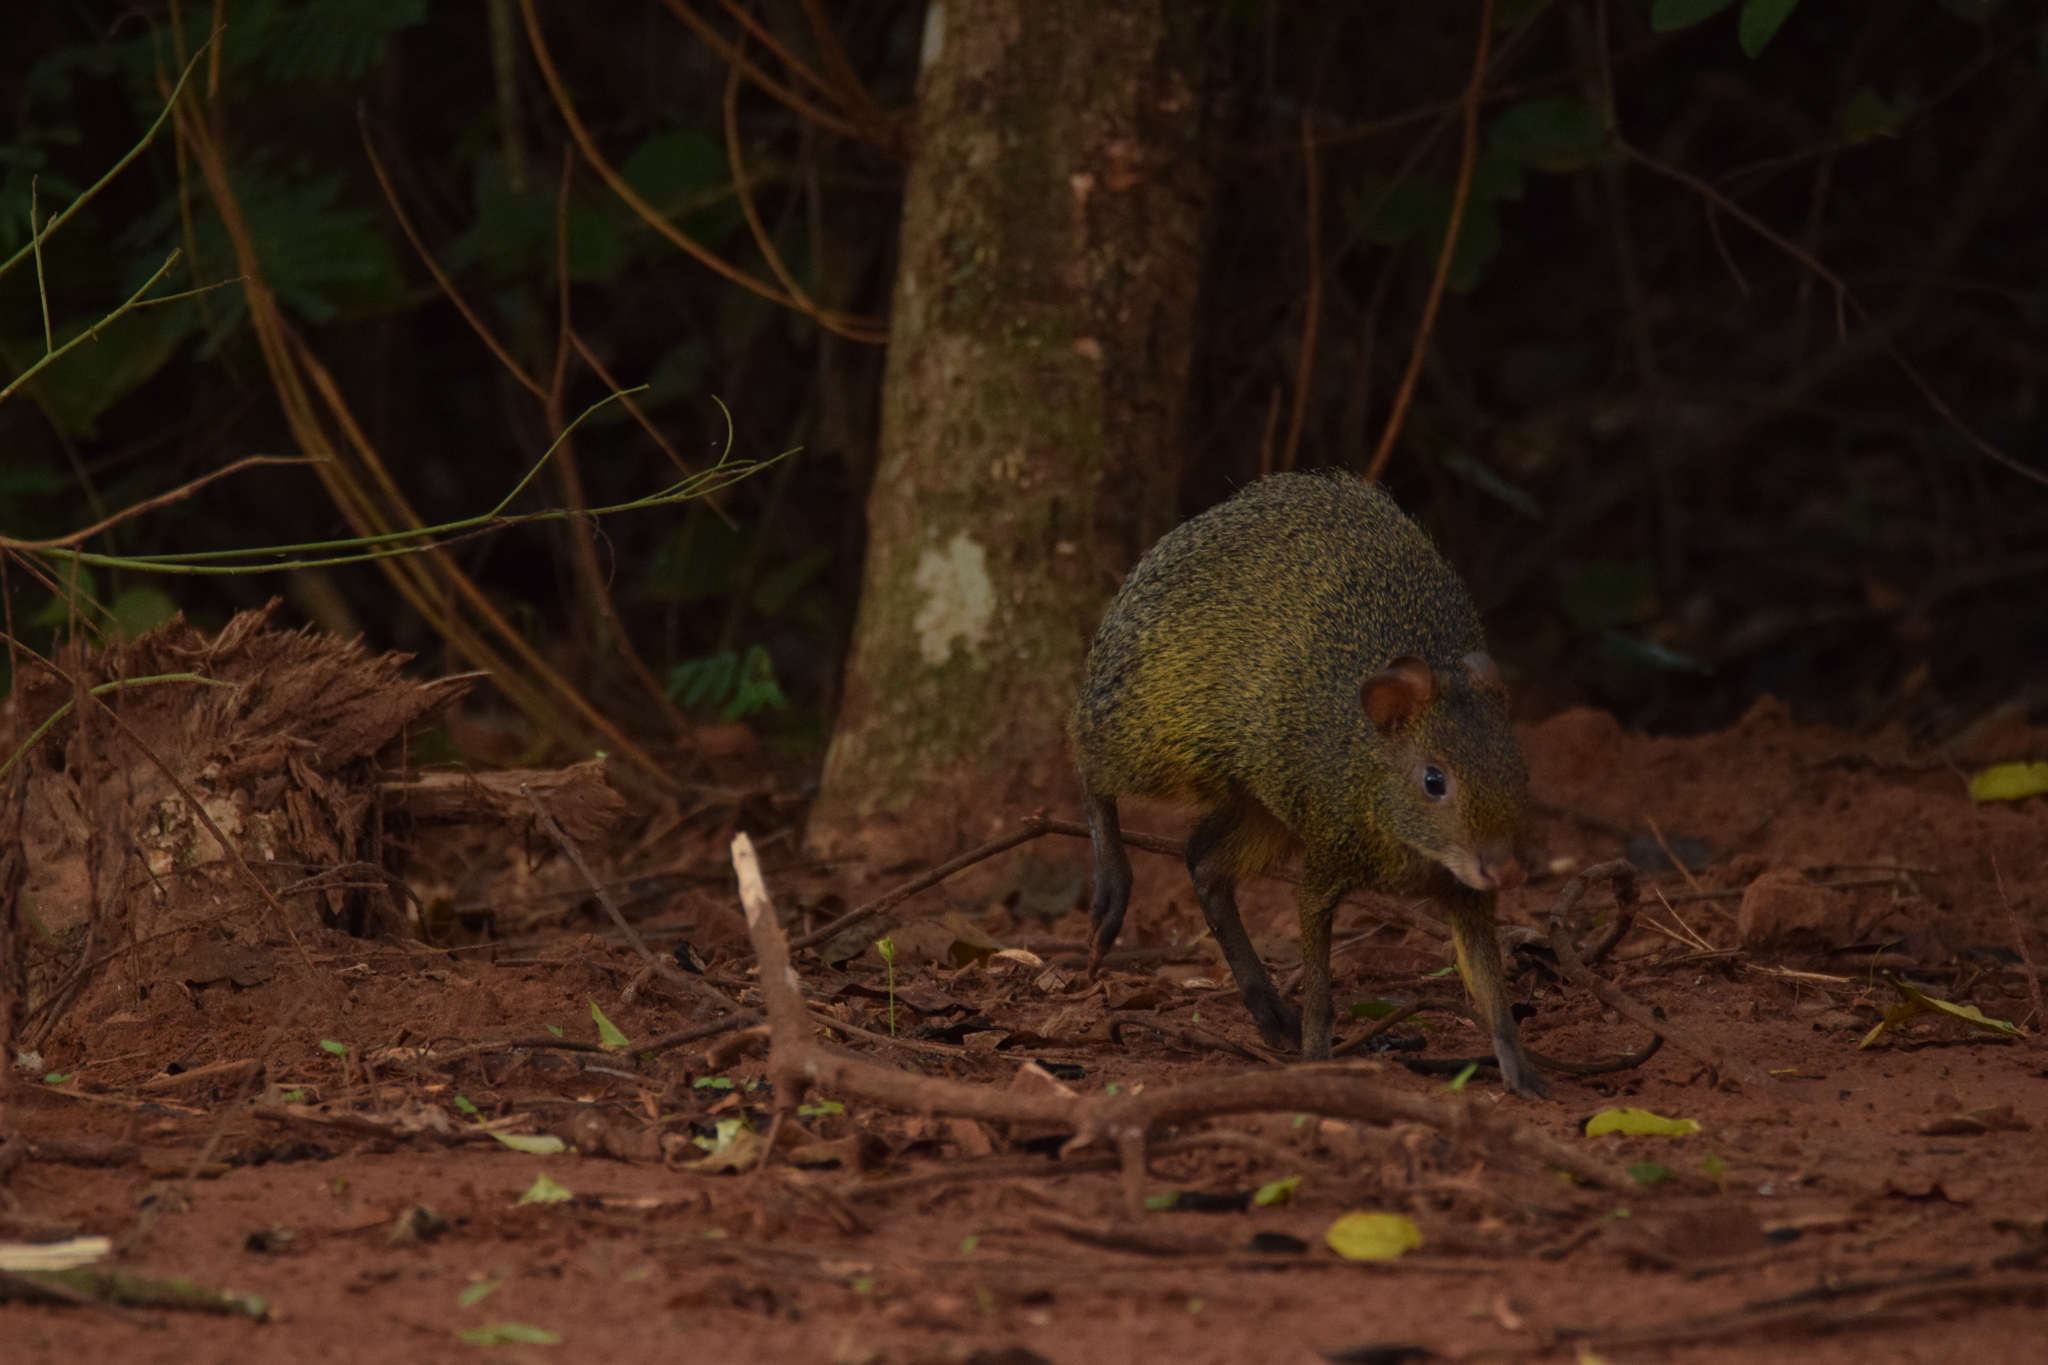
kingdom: Animalia
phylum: Chordata
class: Mammalia
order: Rodentia
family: Dasyproctidae
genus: Dasyprocta
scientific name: Dasyprocta azarae
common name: Azara's agouti
